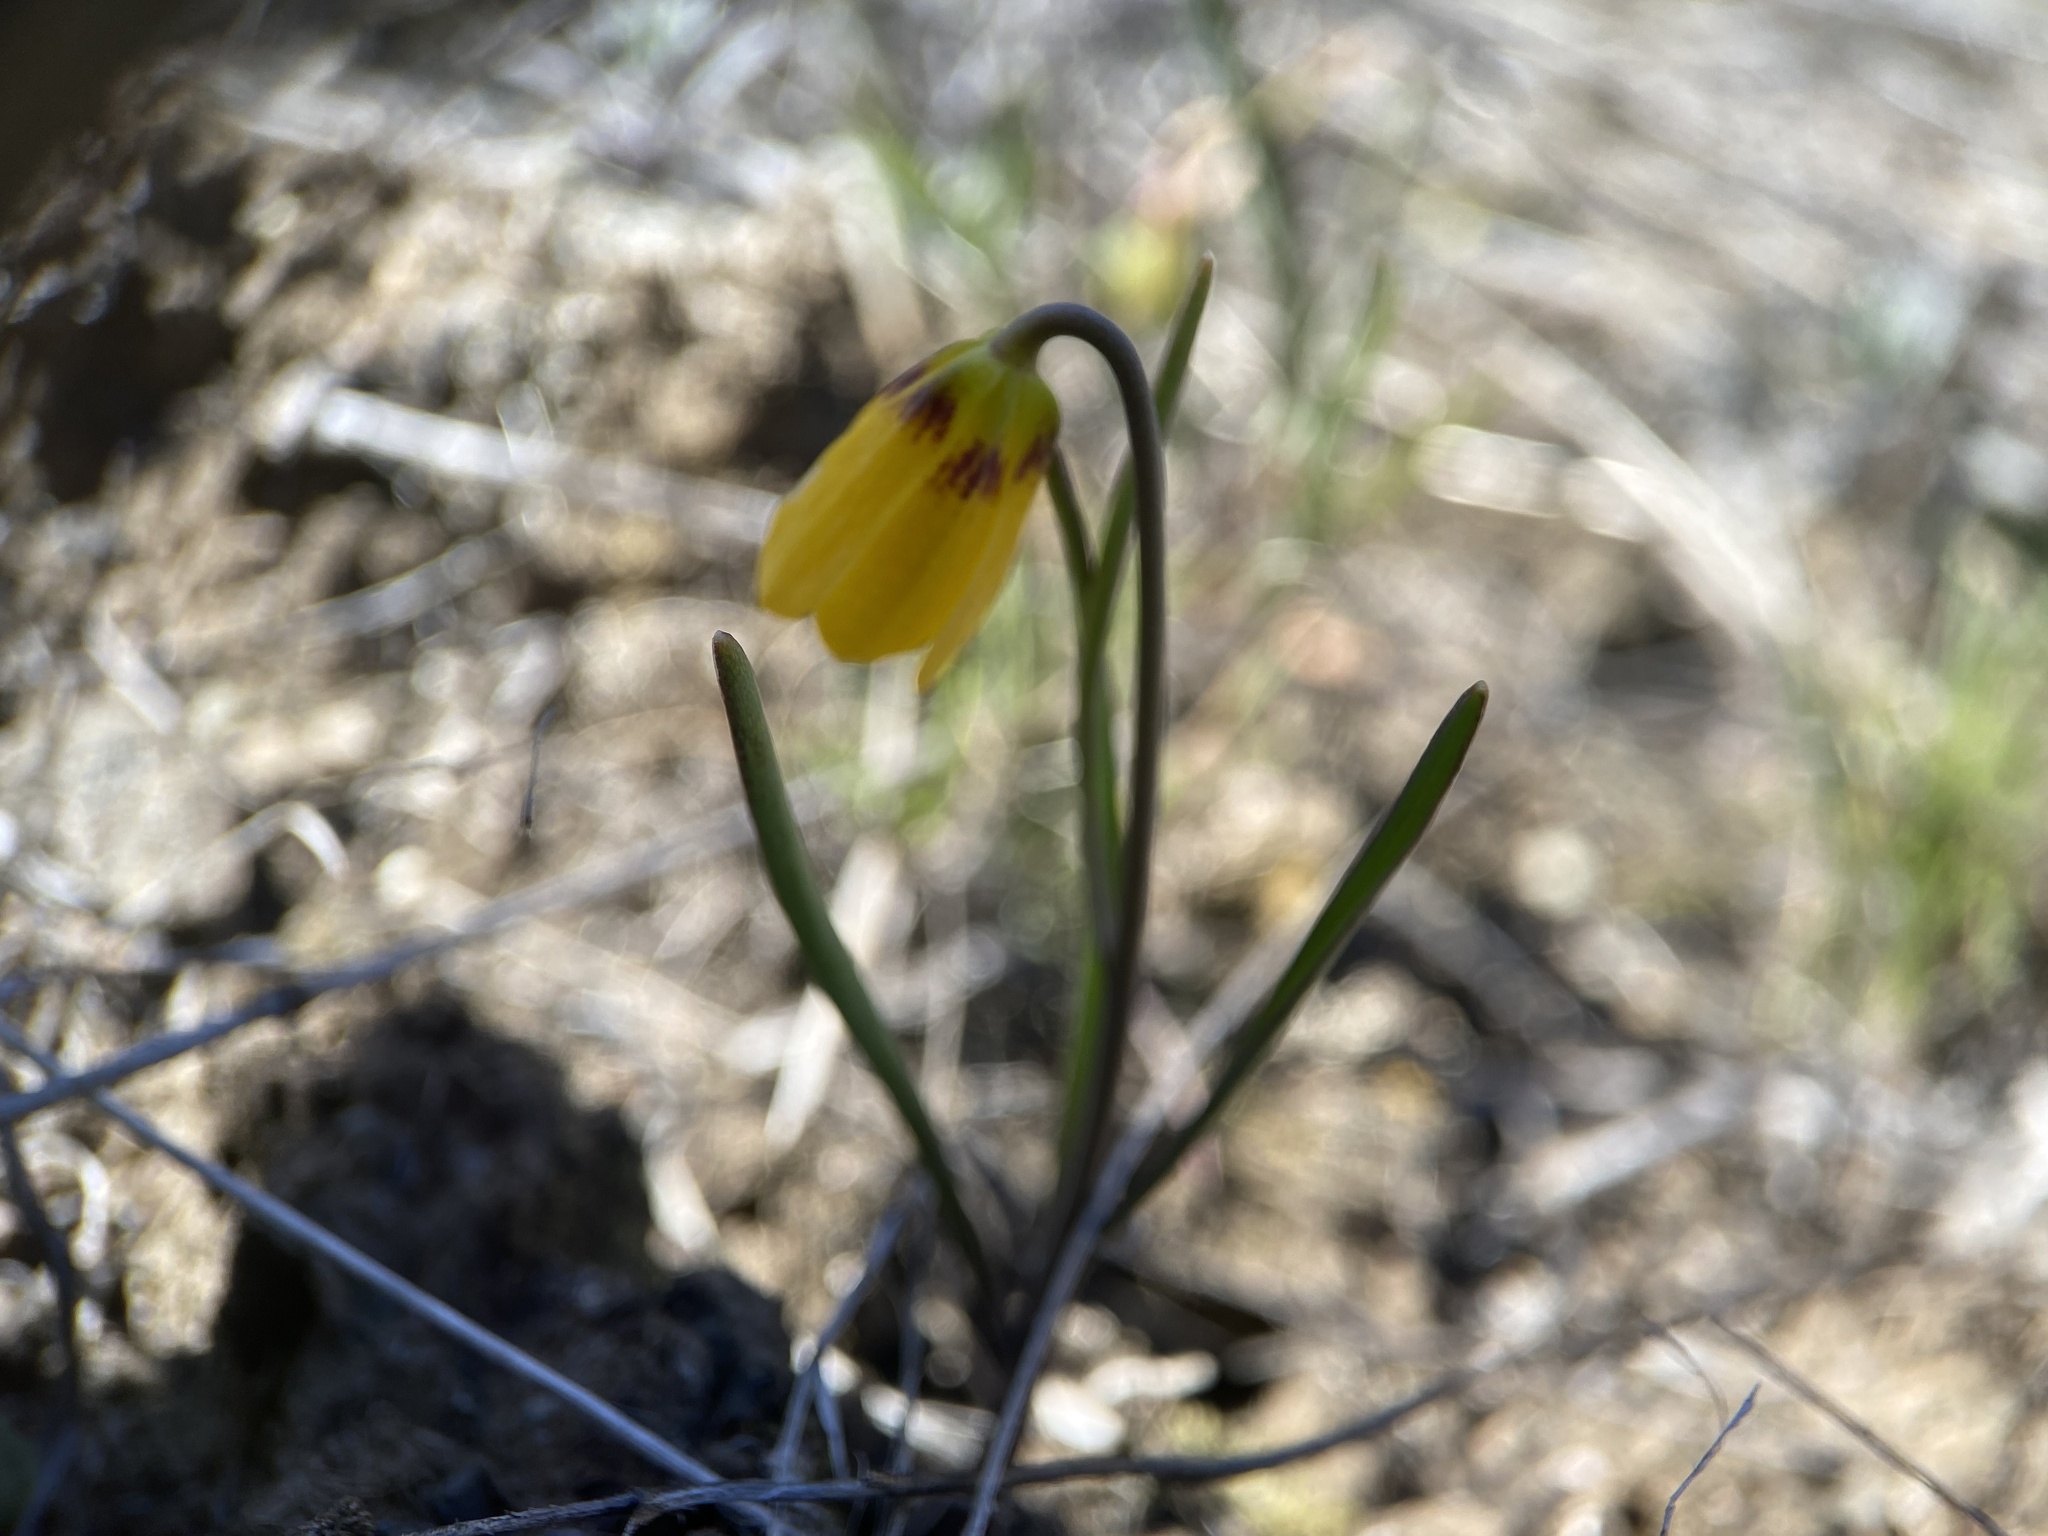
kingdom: Plantae
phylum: Tracheophyta
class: Liliopsida
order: Liliales
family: Liliaceae
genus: Fritillaria
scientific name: Fritillaria pudica
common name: Yellow fritillary
